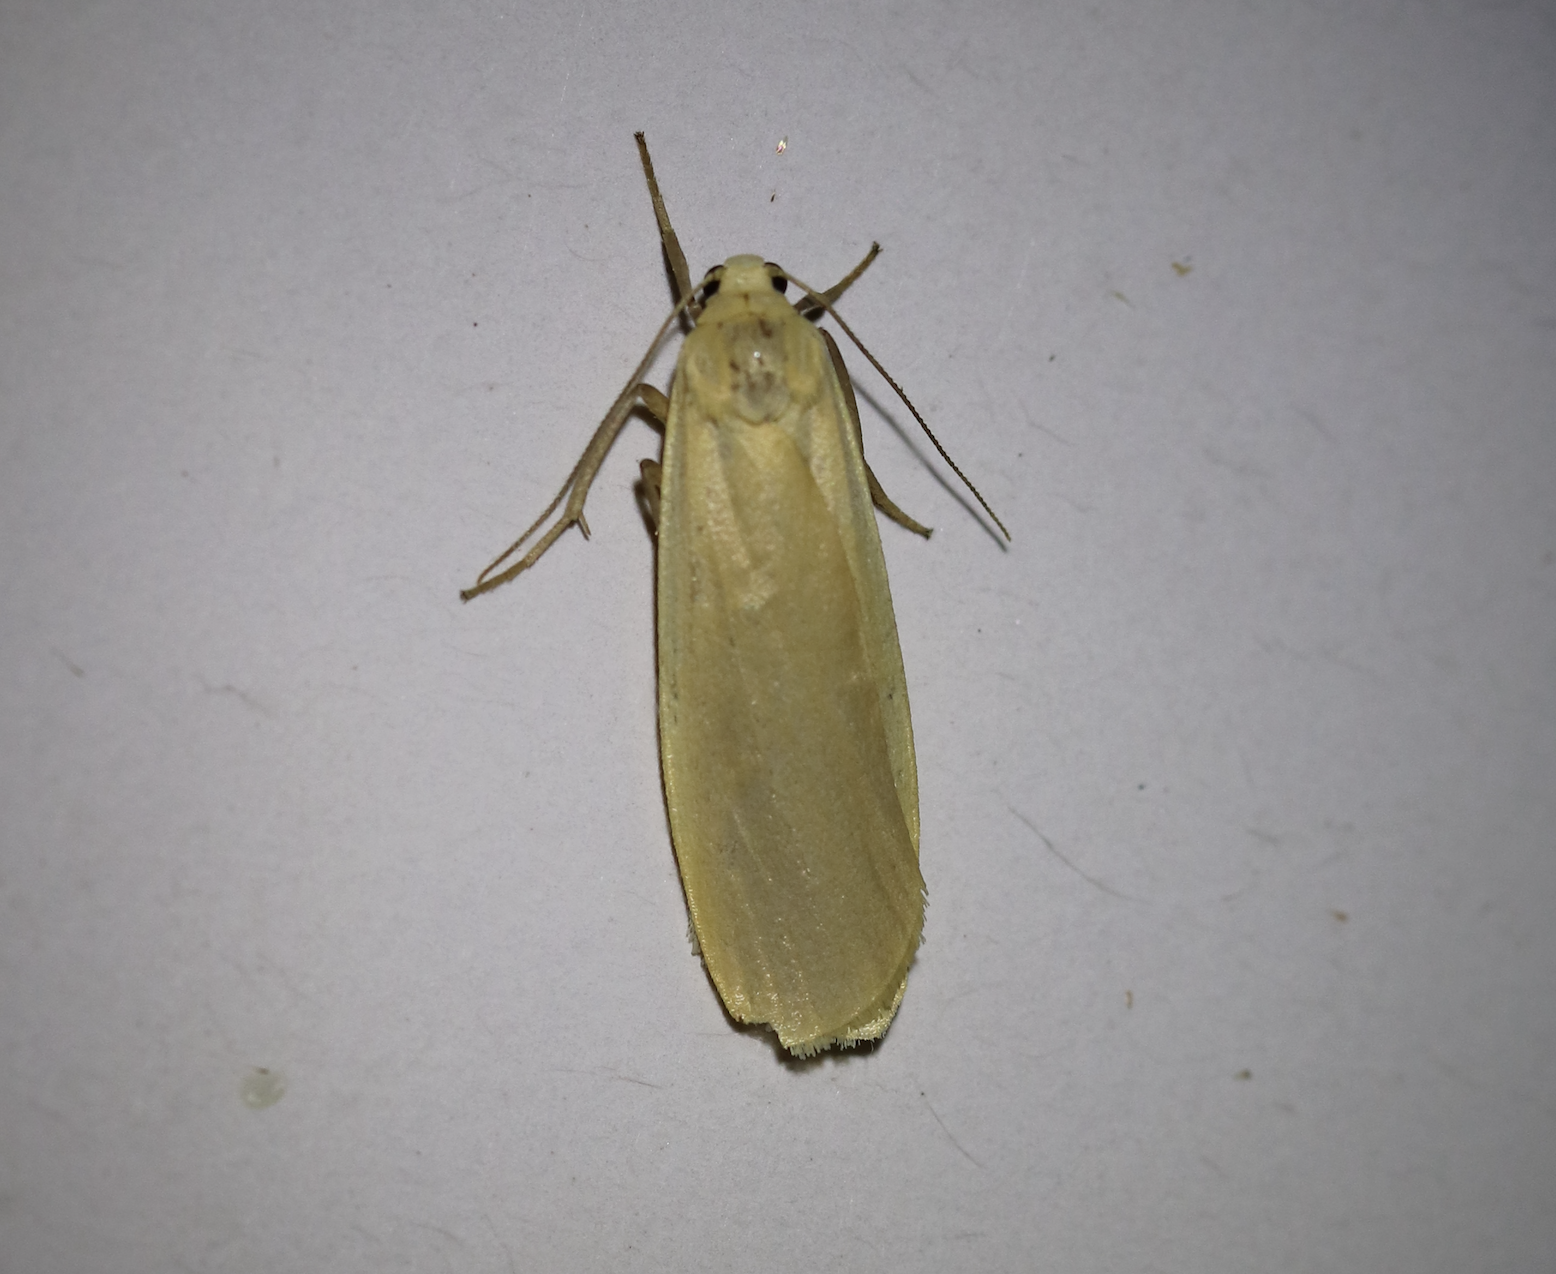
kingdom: Animalia
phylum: Arthropoda
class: Insecta
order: Lepidoptera
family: Erebidae
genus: Katha
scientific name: Katha depressa
